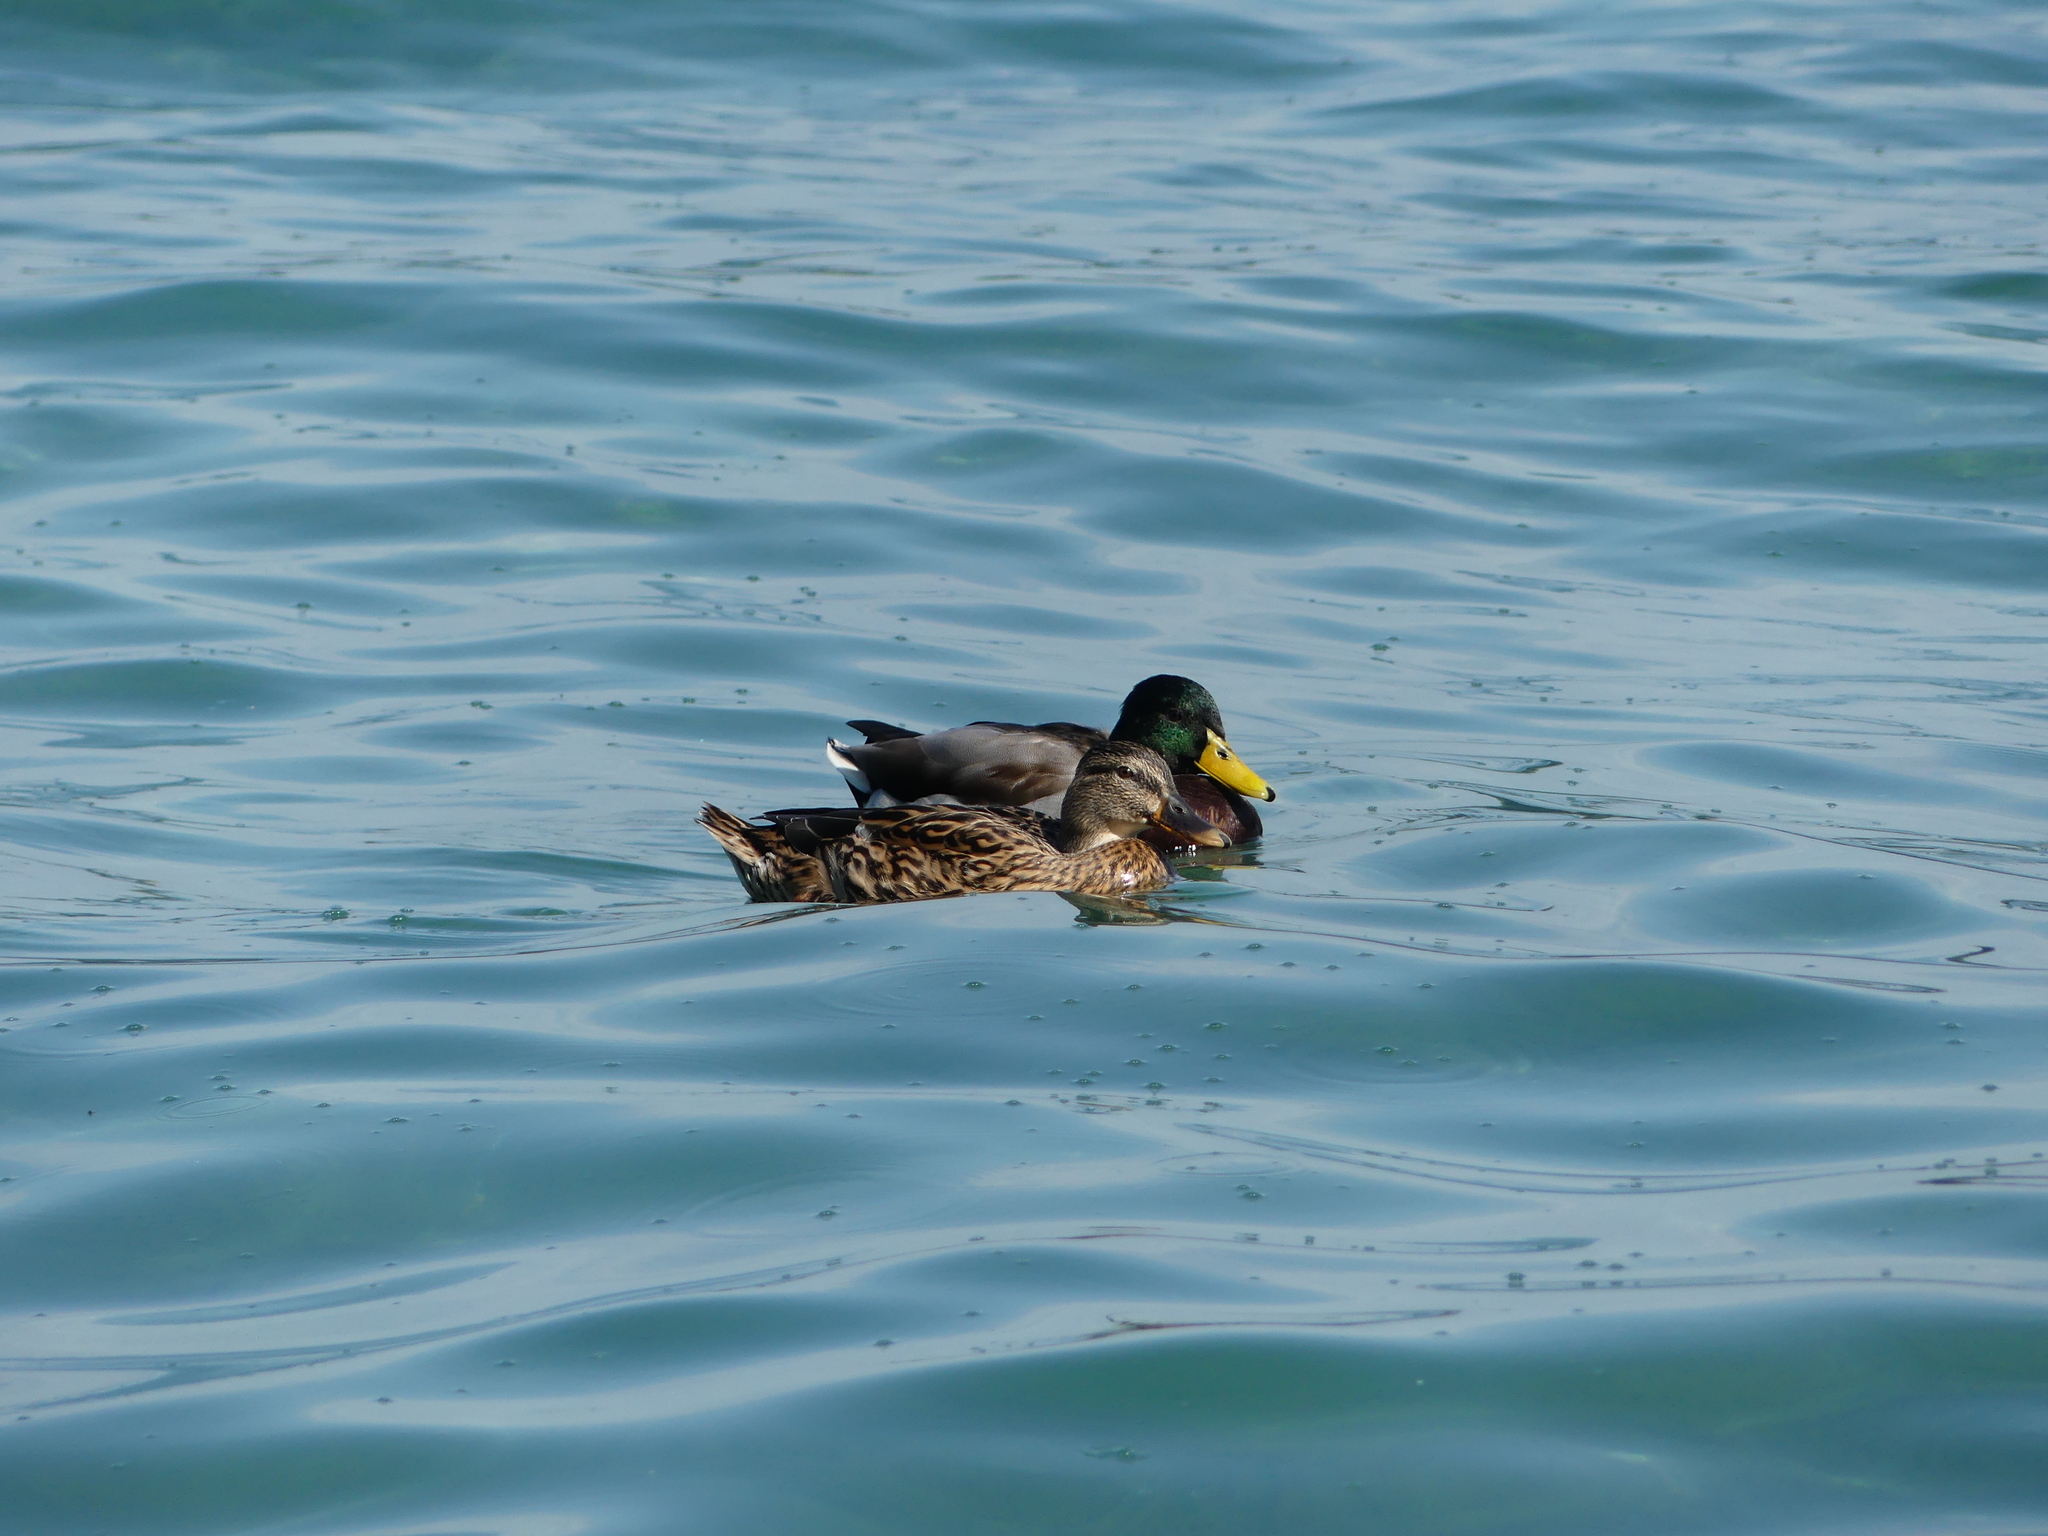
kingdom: Animalia
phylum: Chordata
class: Aves
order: Anseriformes
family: Anatidae
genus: Anas
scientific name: Anas platyrhynchos
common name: Mallard
